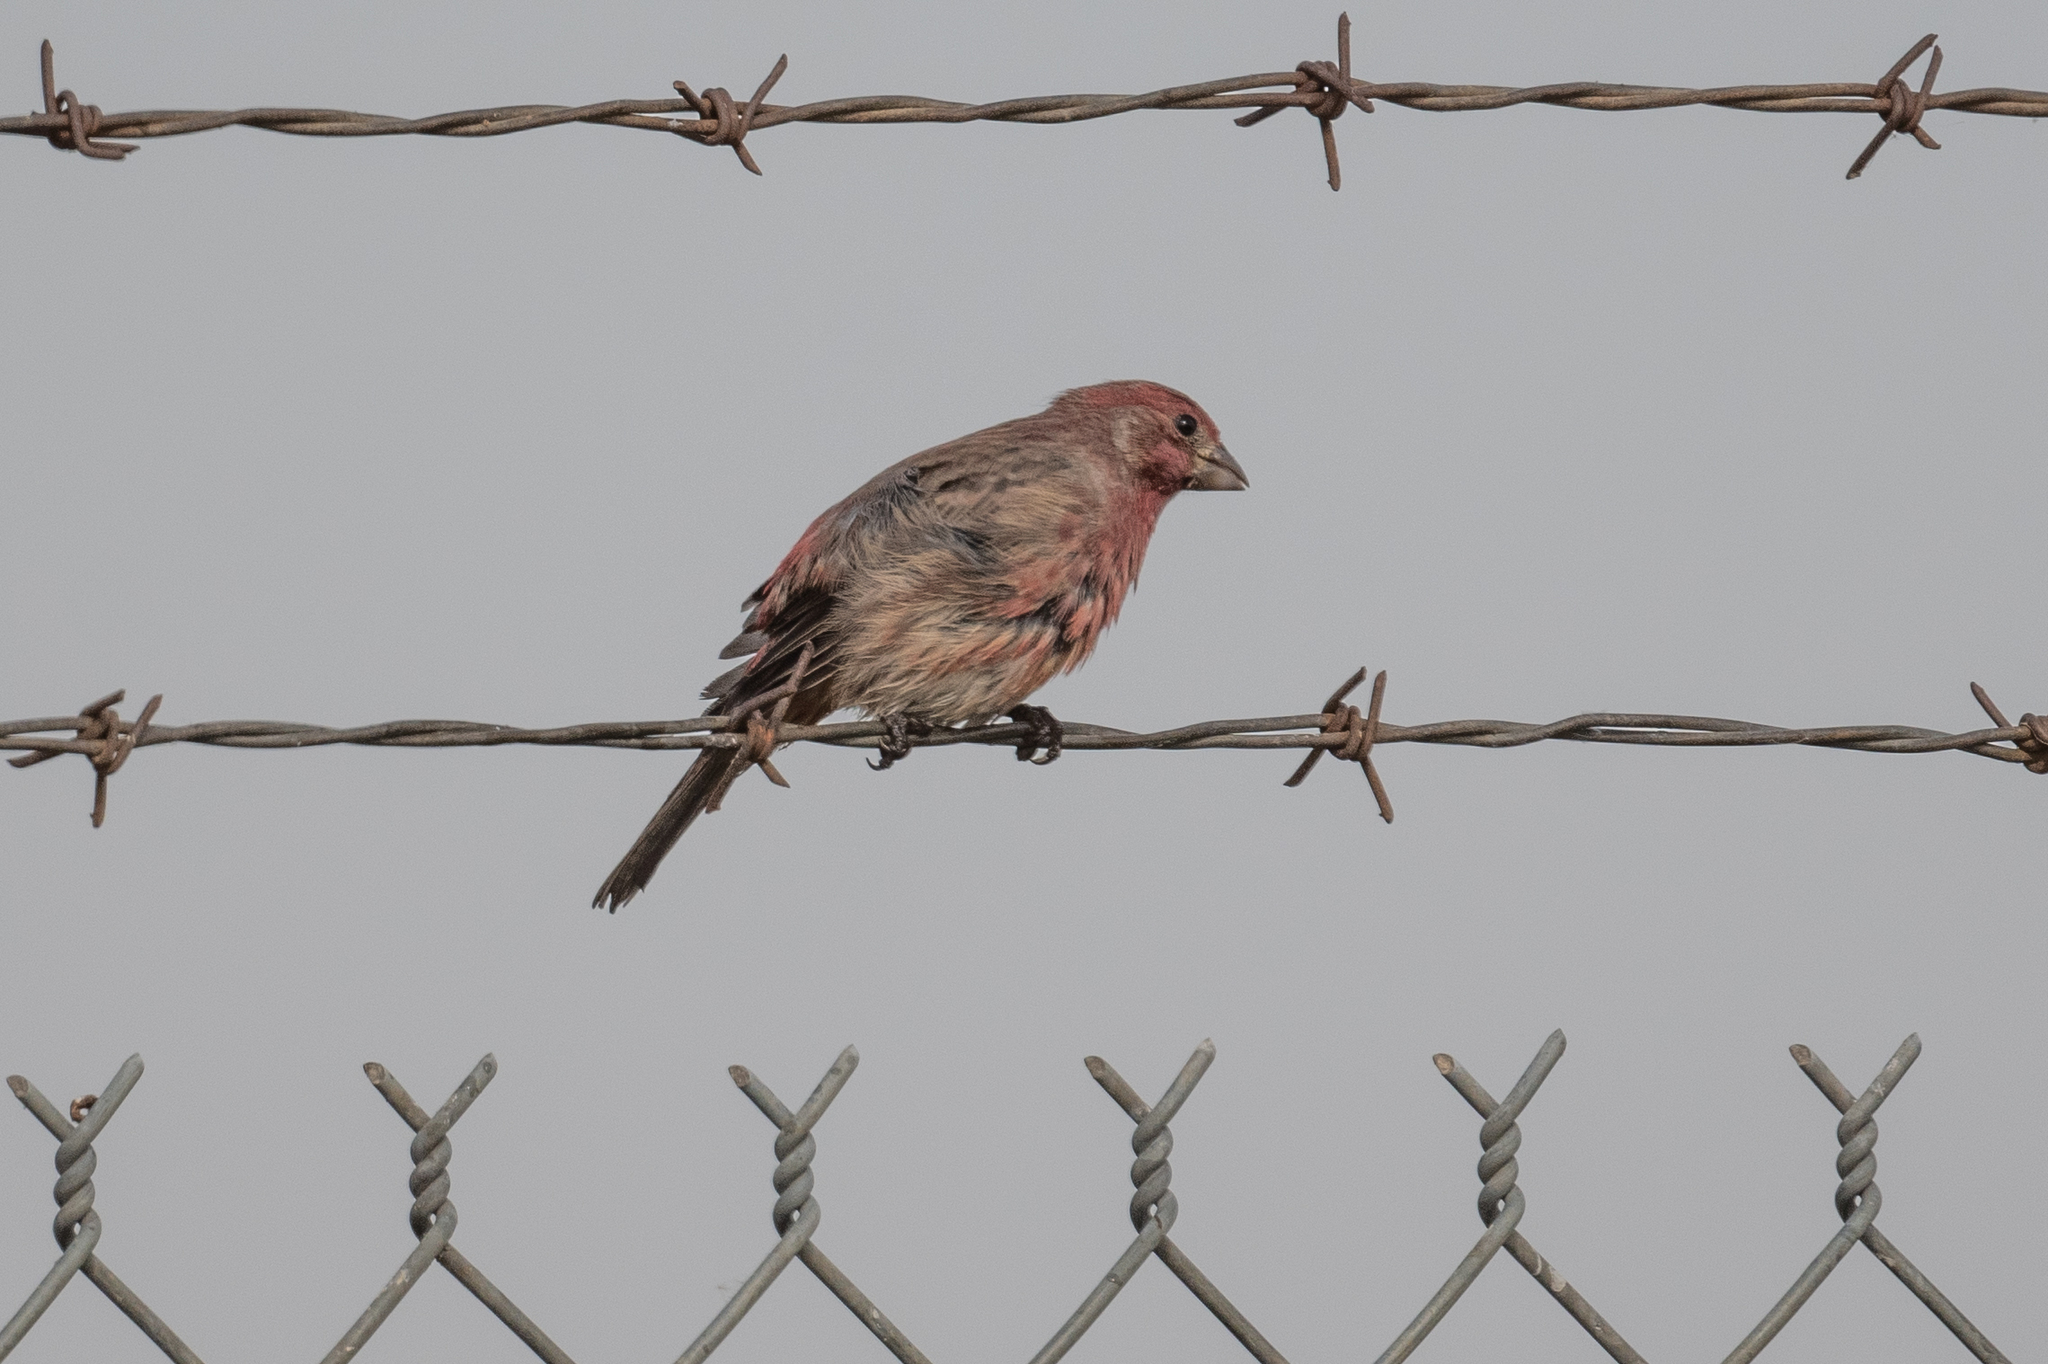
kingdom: Animalia
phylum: Chordata
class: Aves
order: Passeriformes
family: Fringillidae
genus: Haemorhous
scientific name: Haemorhous mexicanus
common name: House finch
